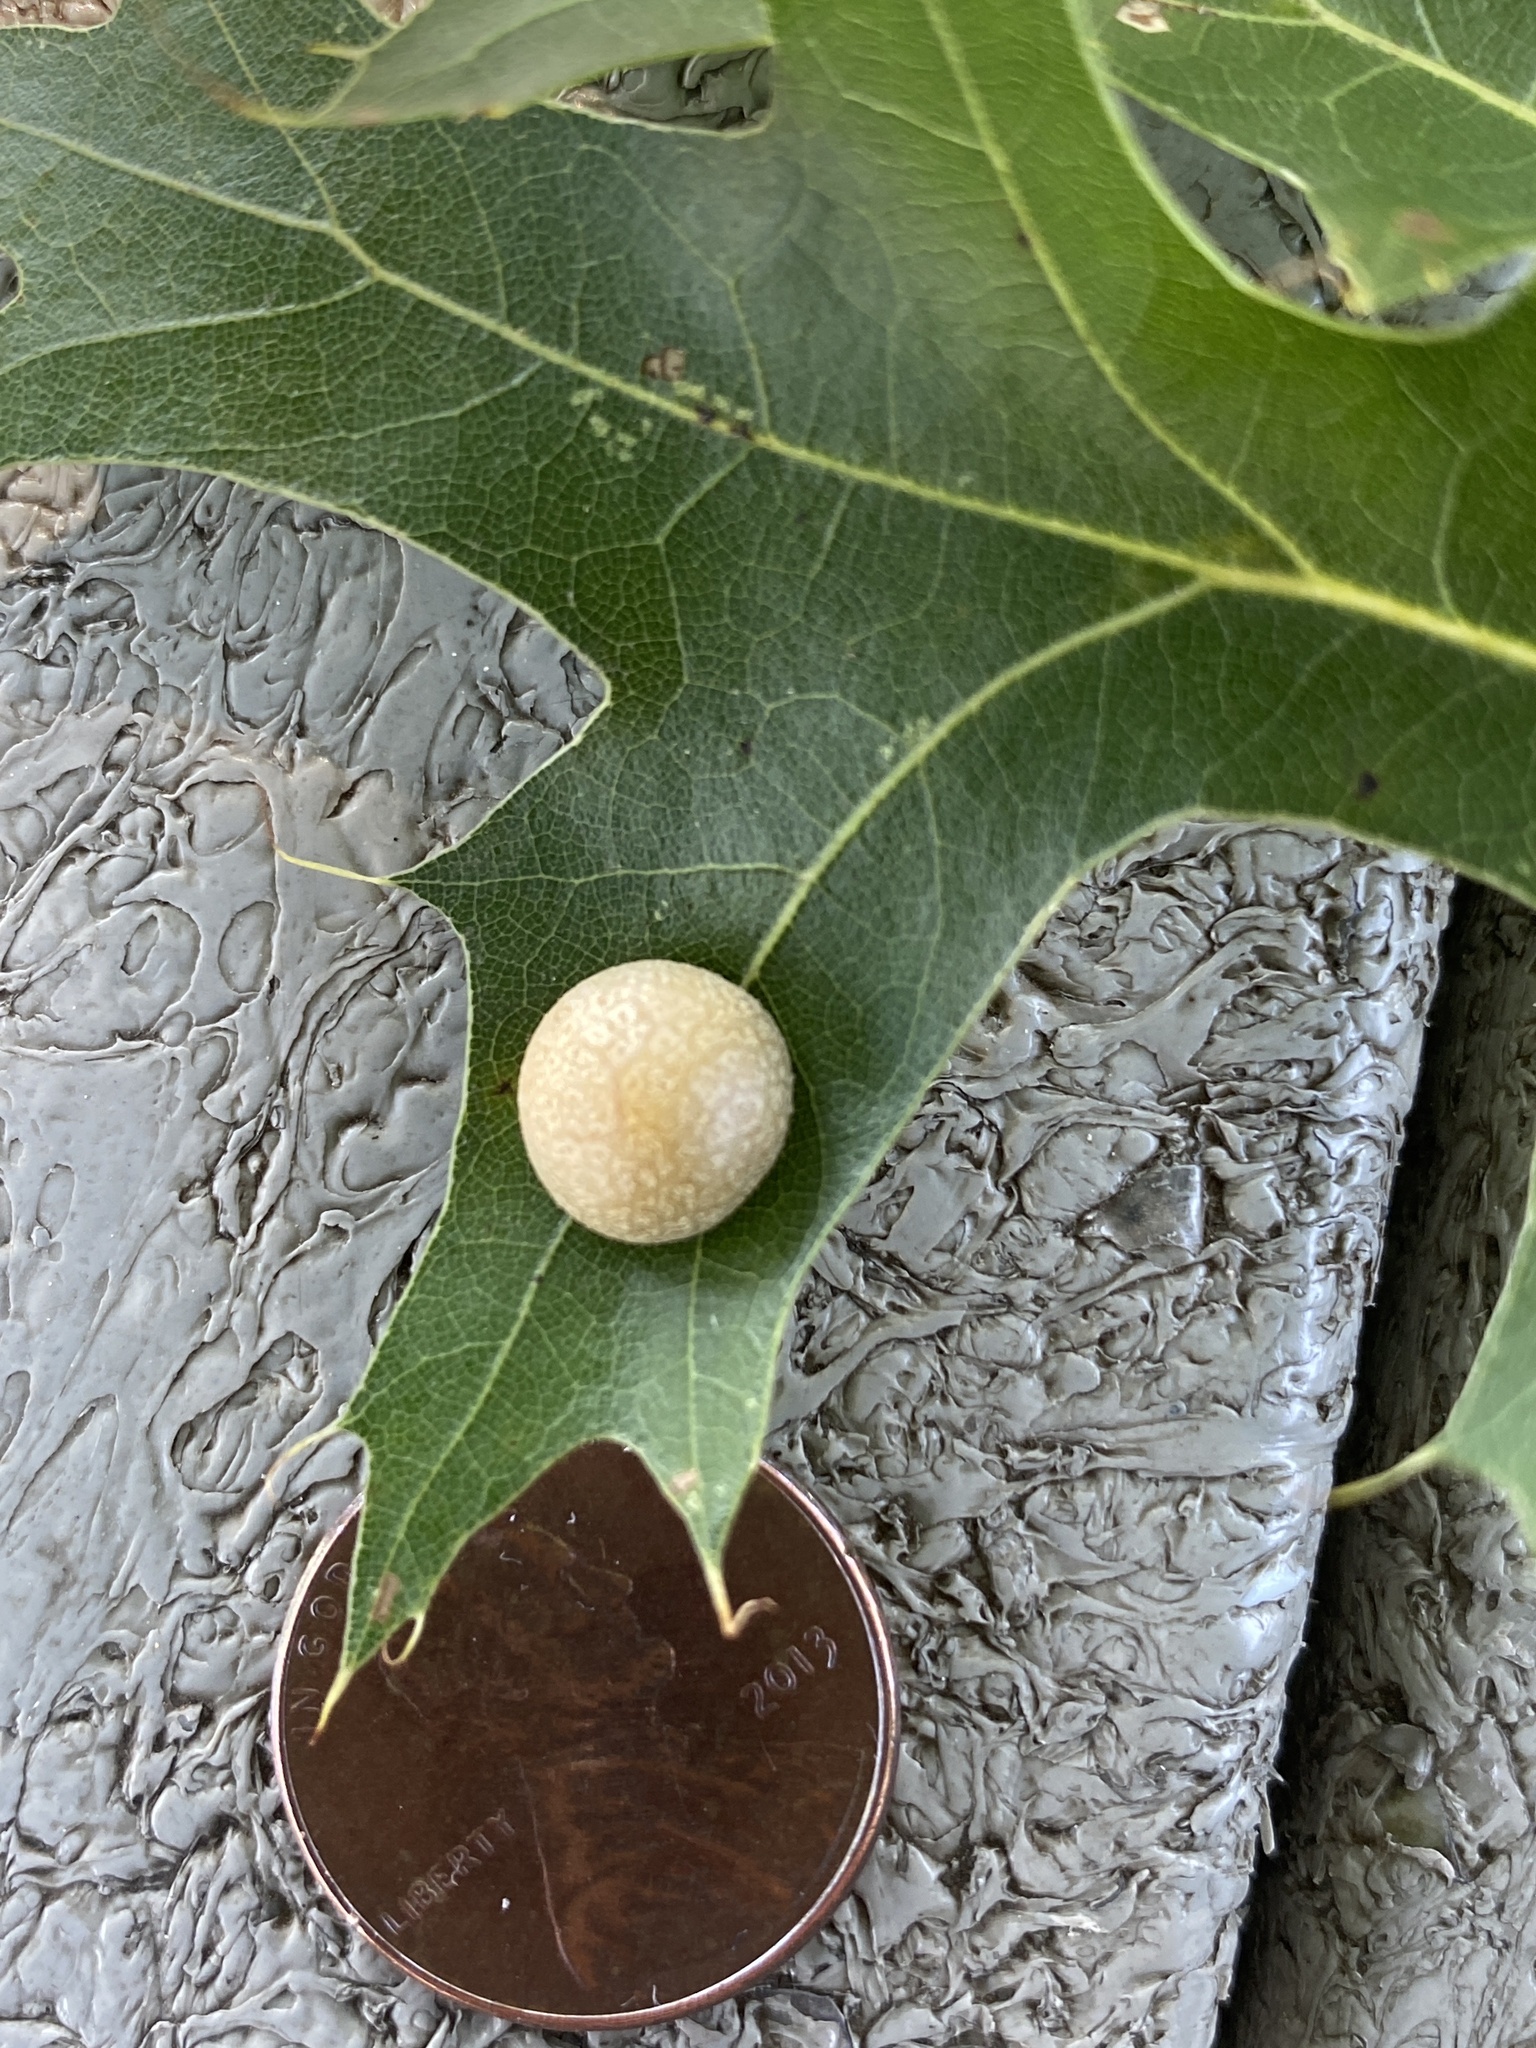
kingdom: Animalia
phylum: Arthropoda
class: Insecta
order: Diptera
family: Cecidomyiidae
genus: Polystepha
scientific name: Polystepha pilulae
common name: Oak leaf gall midge
